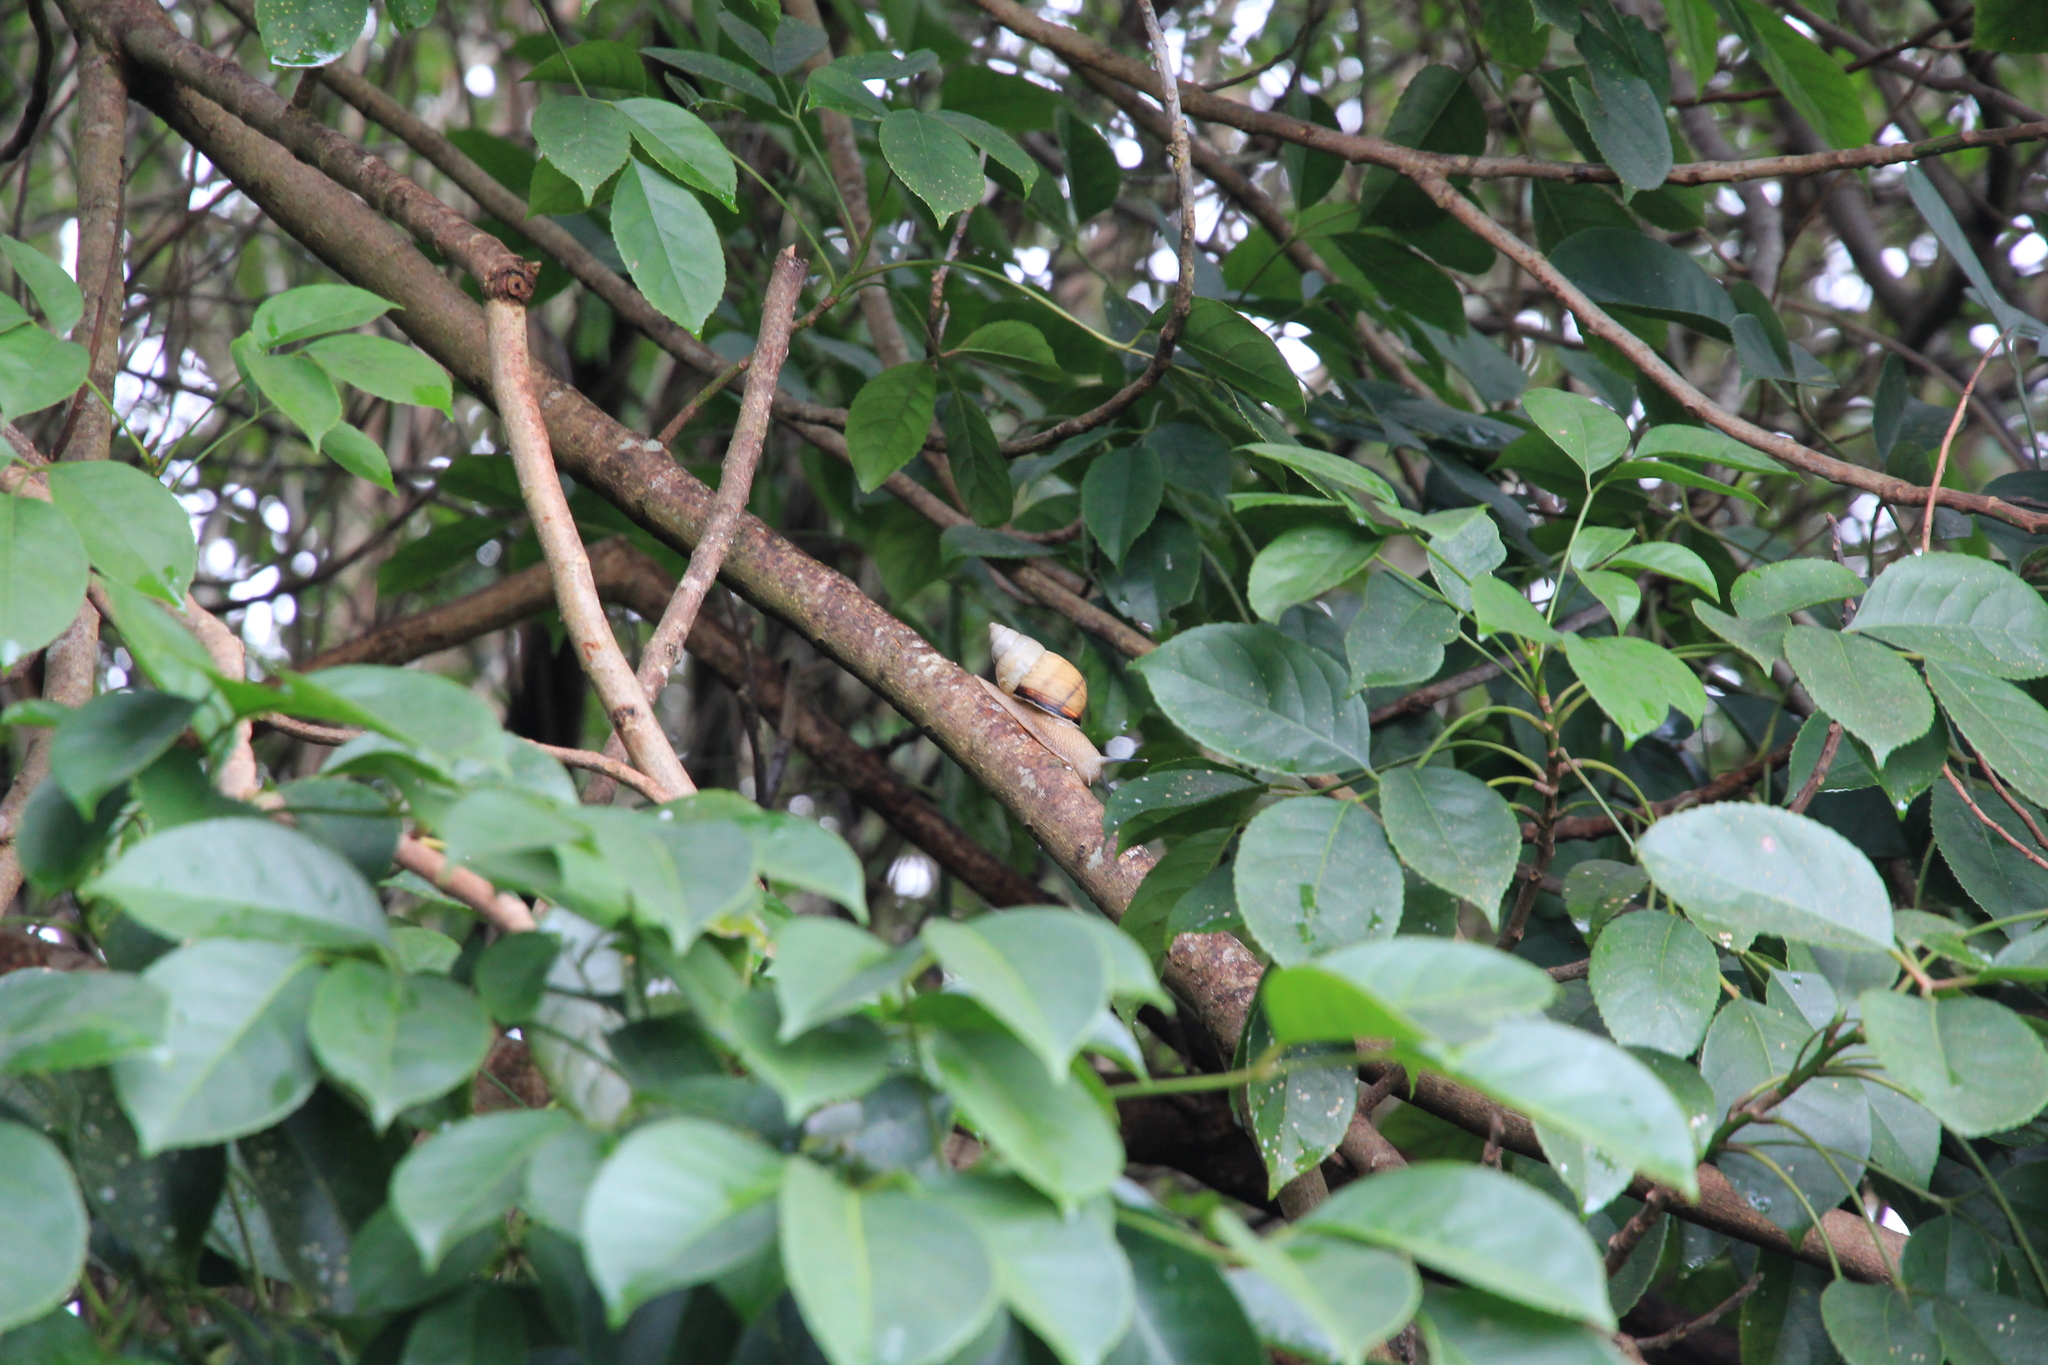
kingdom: Animalia
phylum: Mollusca
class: Gastropoda
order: Stylommatophora
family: Orthalicidae
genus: Orthalicus
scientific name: Orthalicus floridensis
